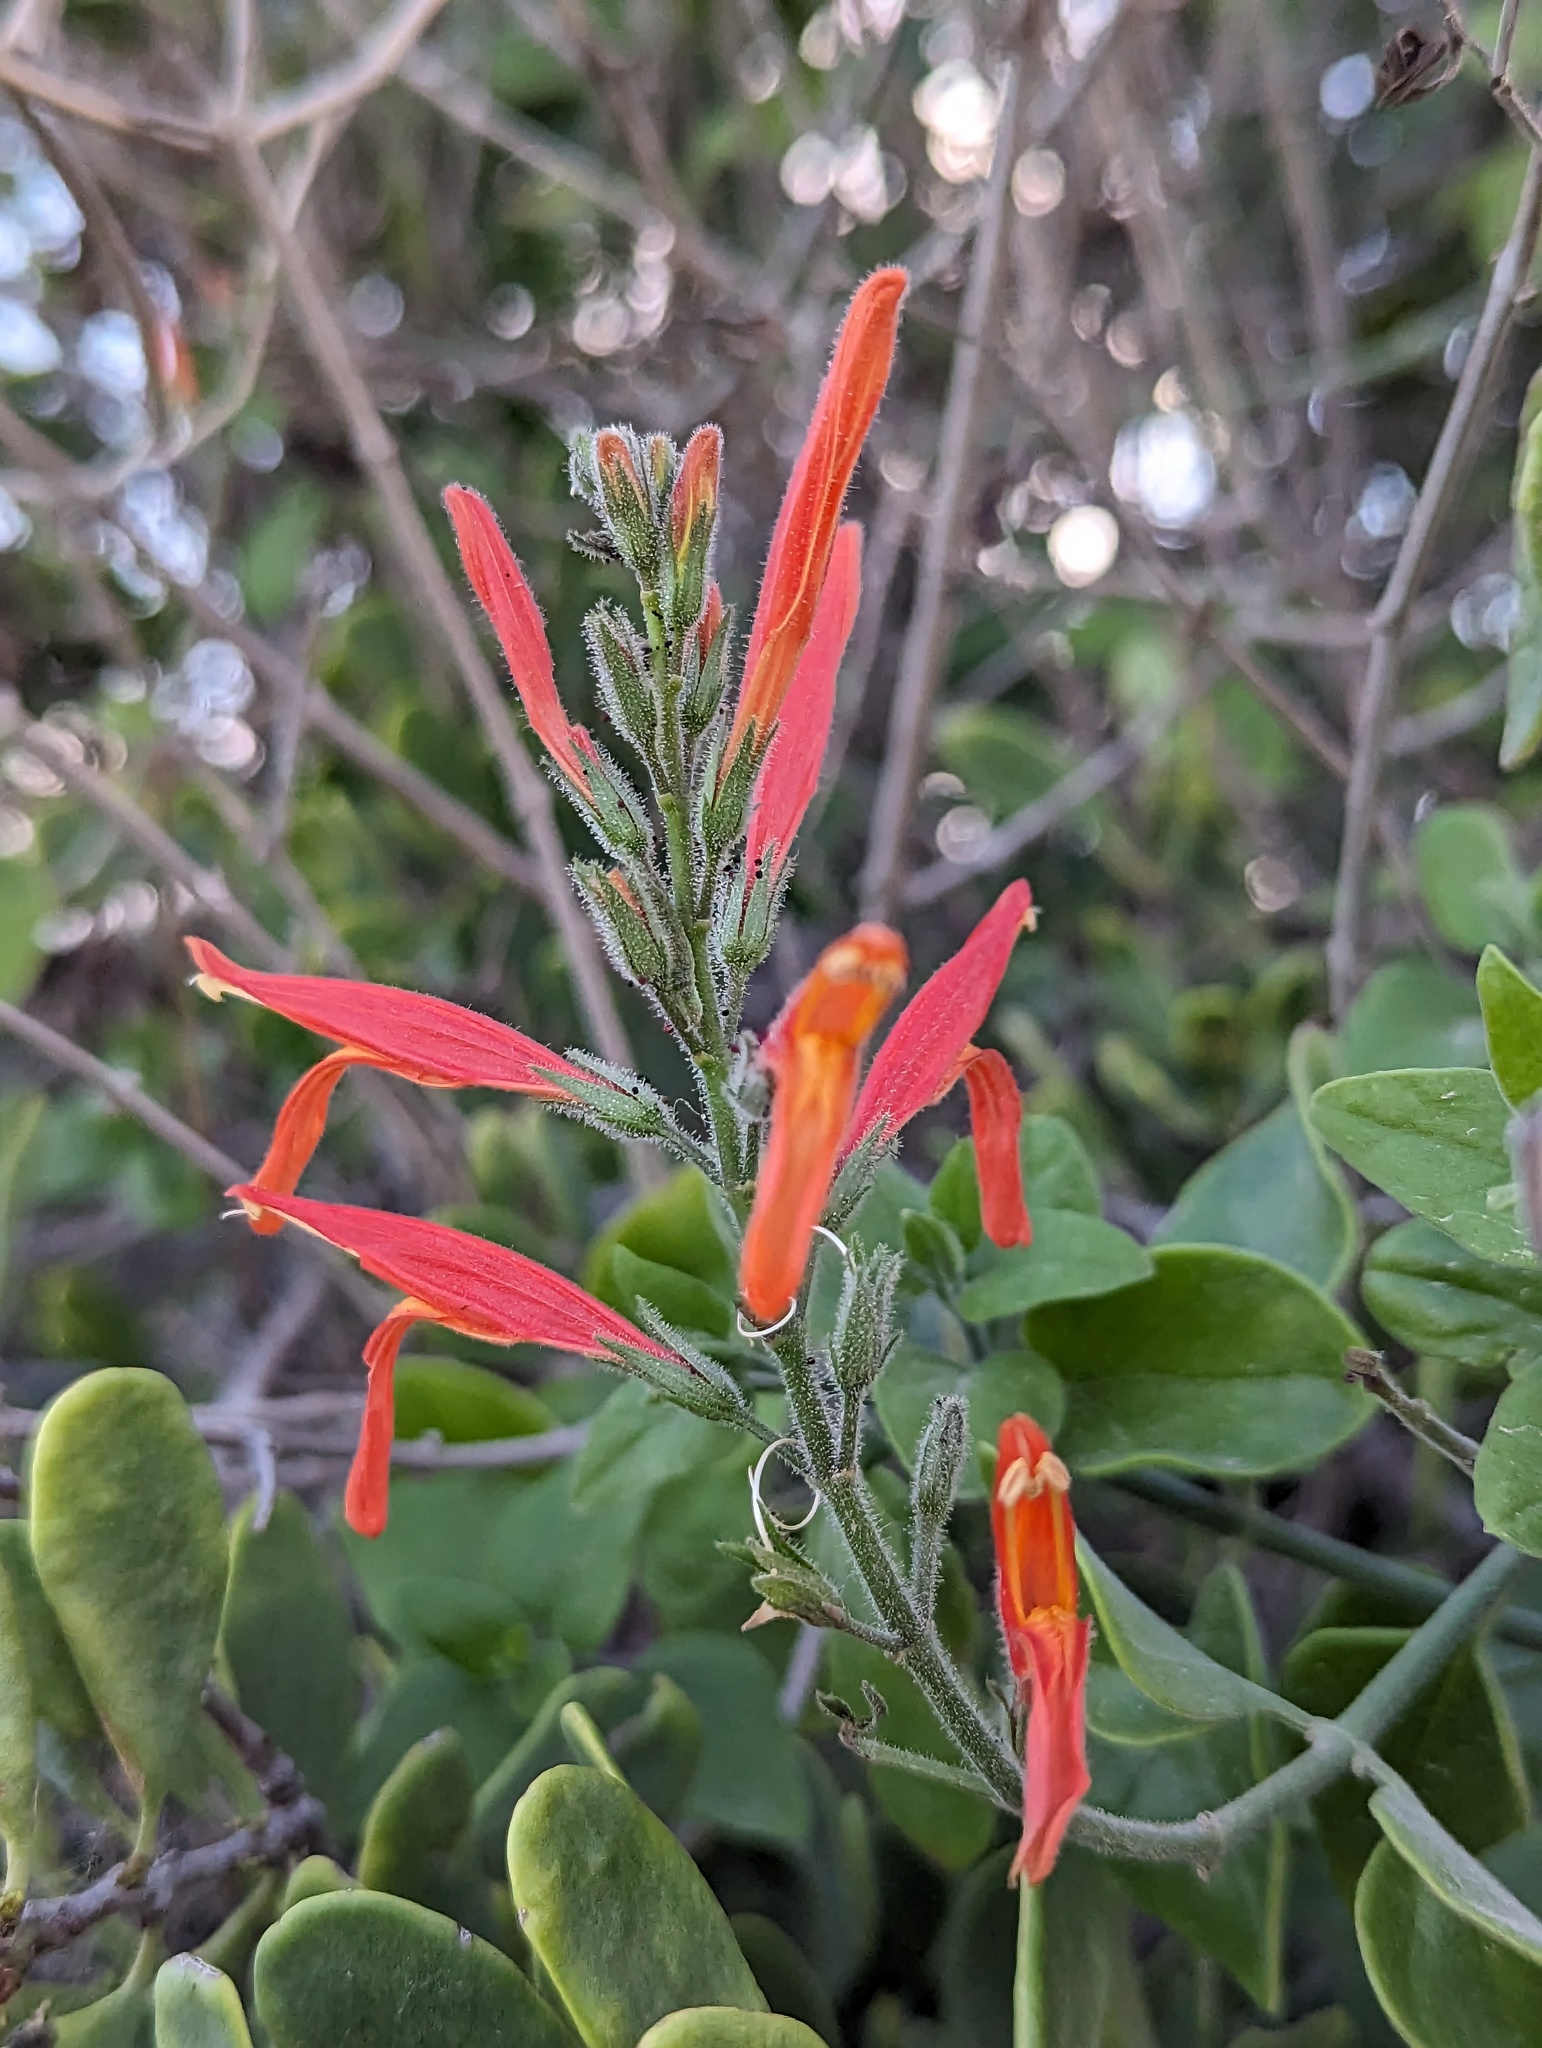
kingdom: Plantae
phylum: Tracheophyta
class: Magnoliopsida
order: Lamiales
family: Acanthaceae
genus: Justicia
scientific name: Justicia californica
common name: Chuparosa-honeysuckle
